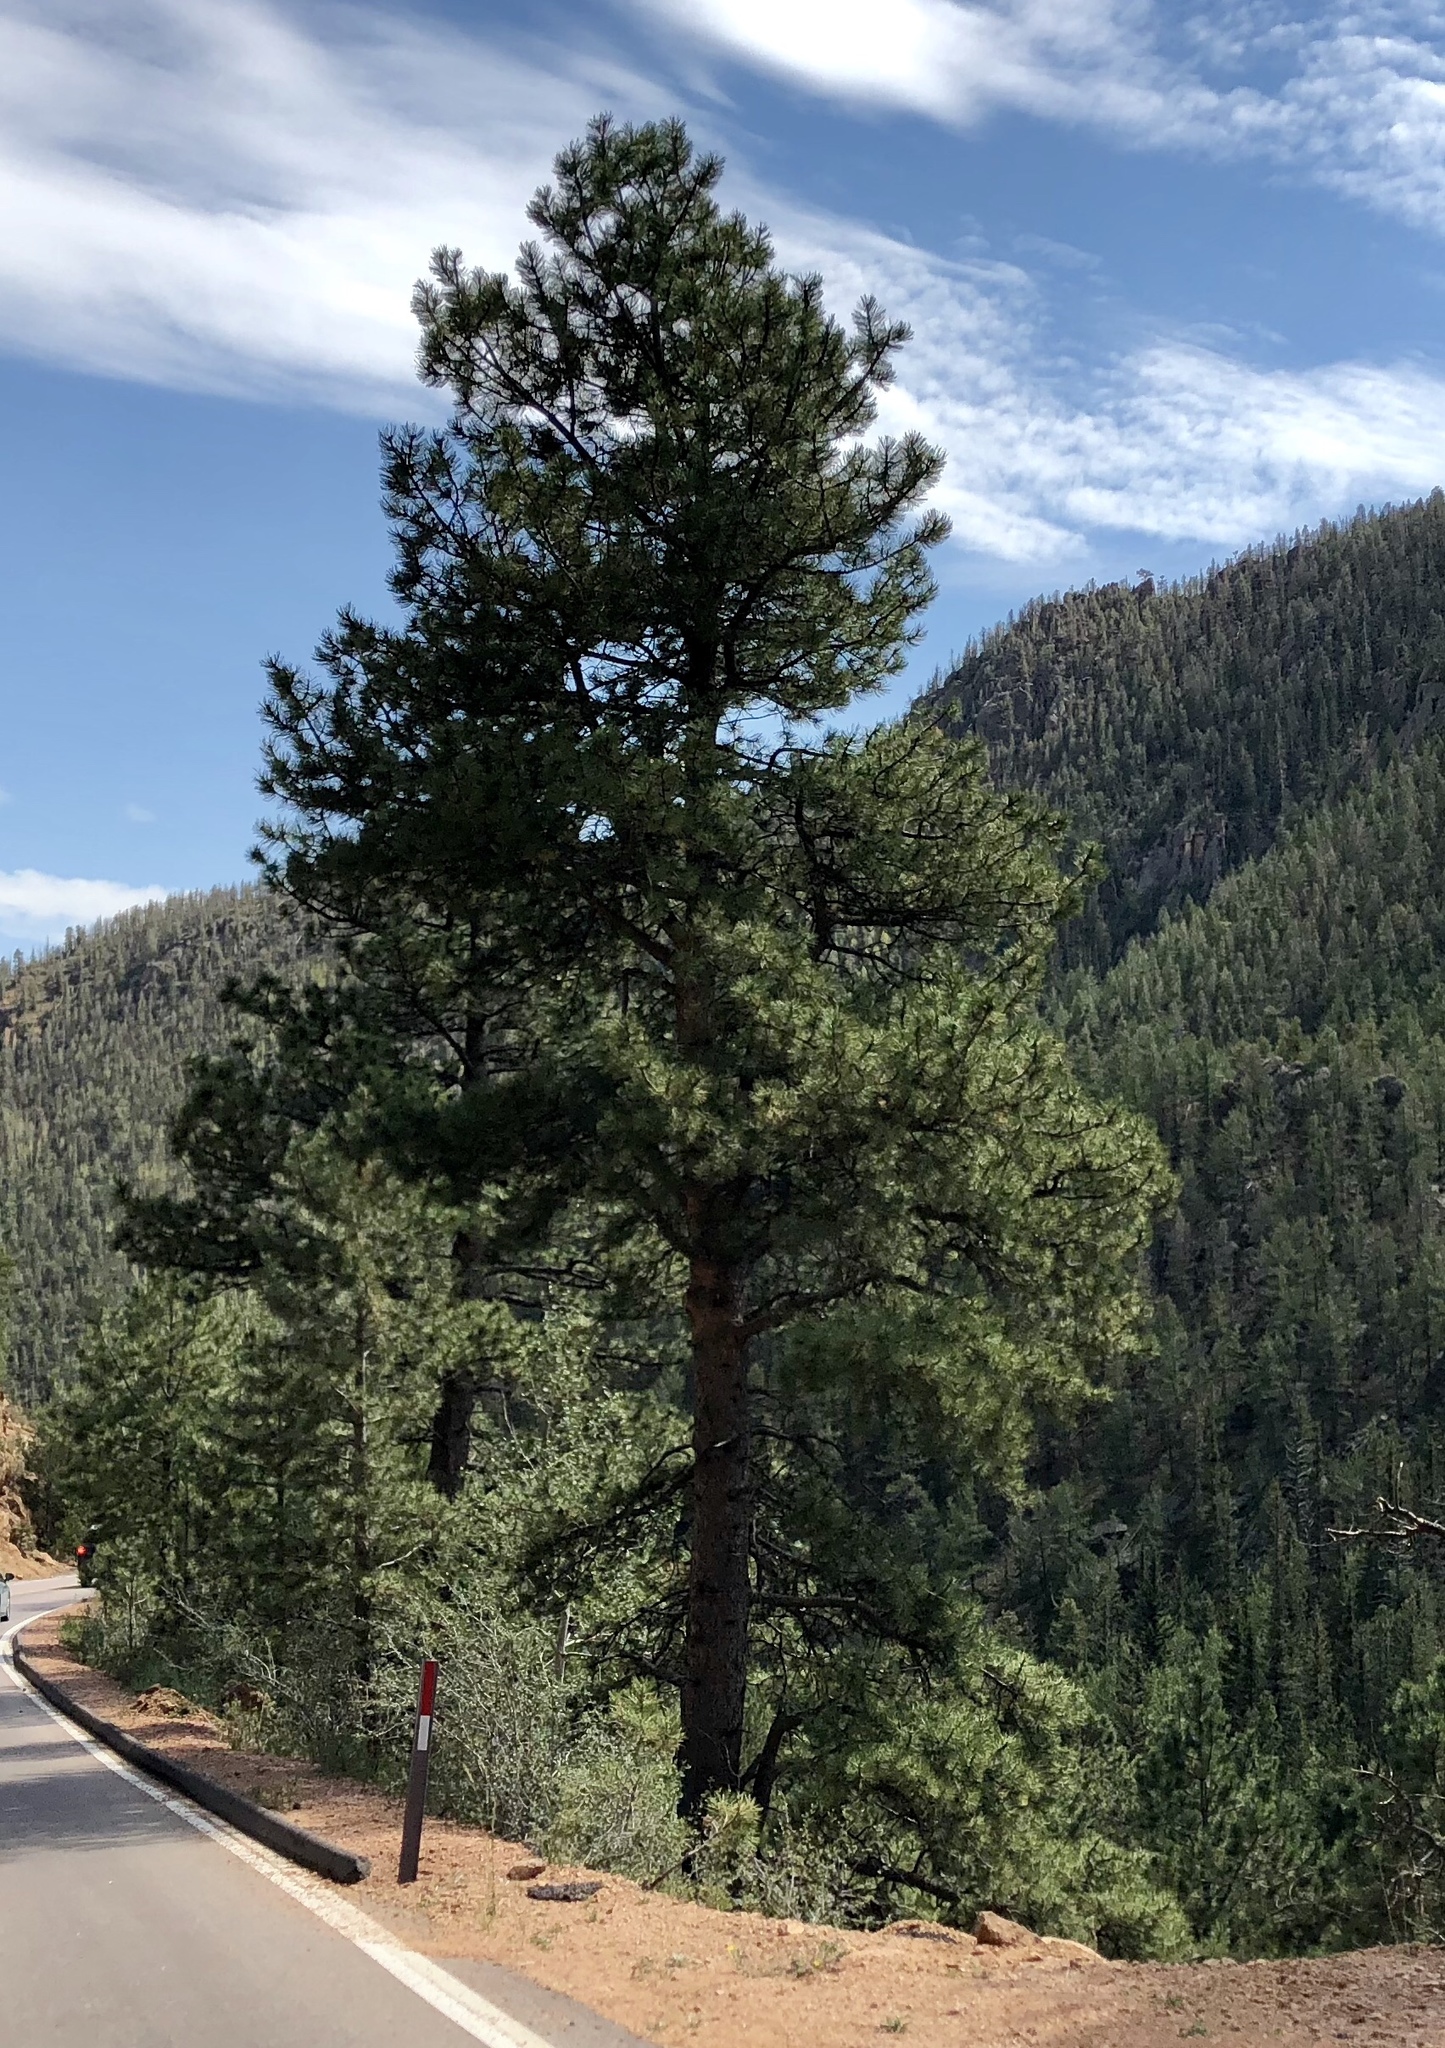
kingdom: Plantae
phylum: Tracheophyta
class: Pinopsida
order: Pinales
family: Pinaceae
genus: Pinus
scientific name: Pinus ponderosa
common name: Western yellow-pine
